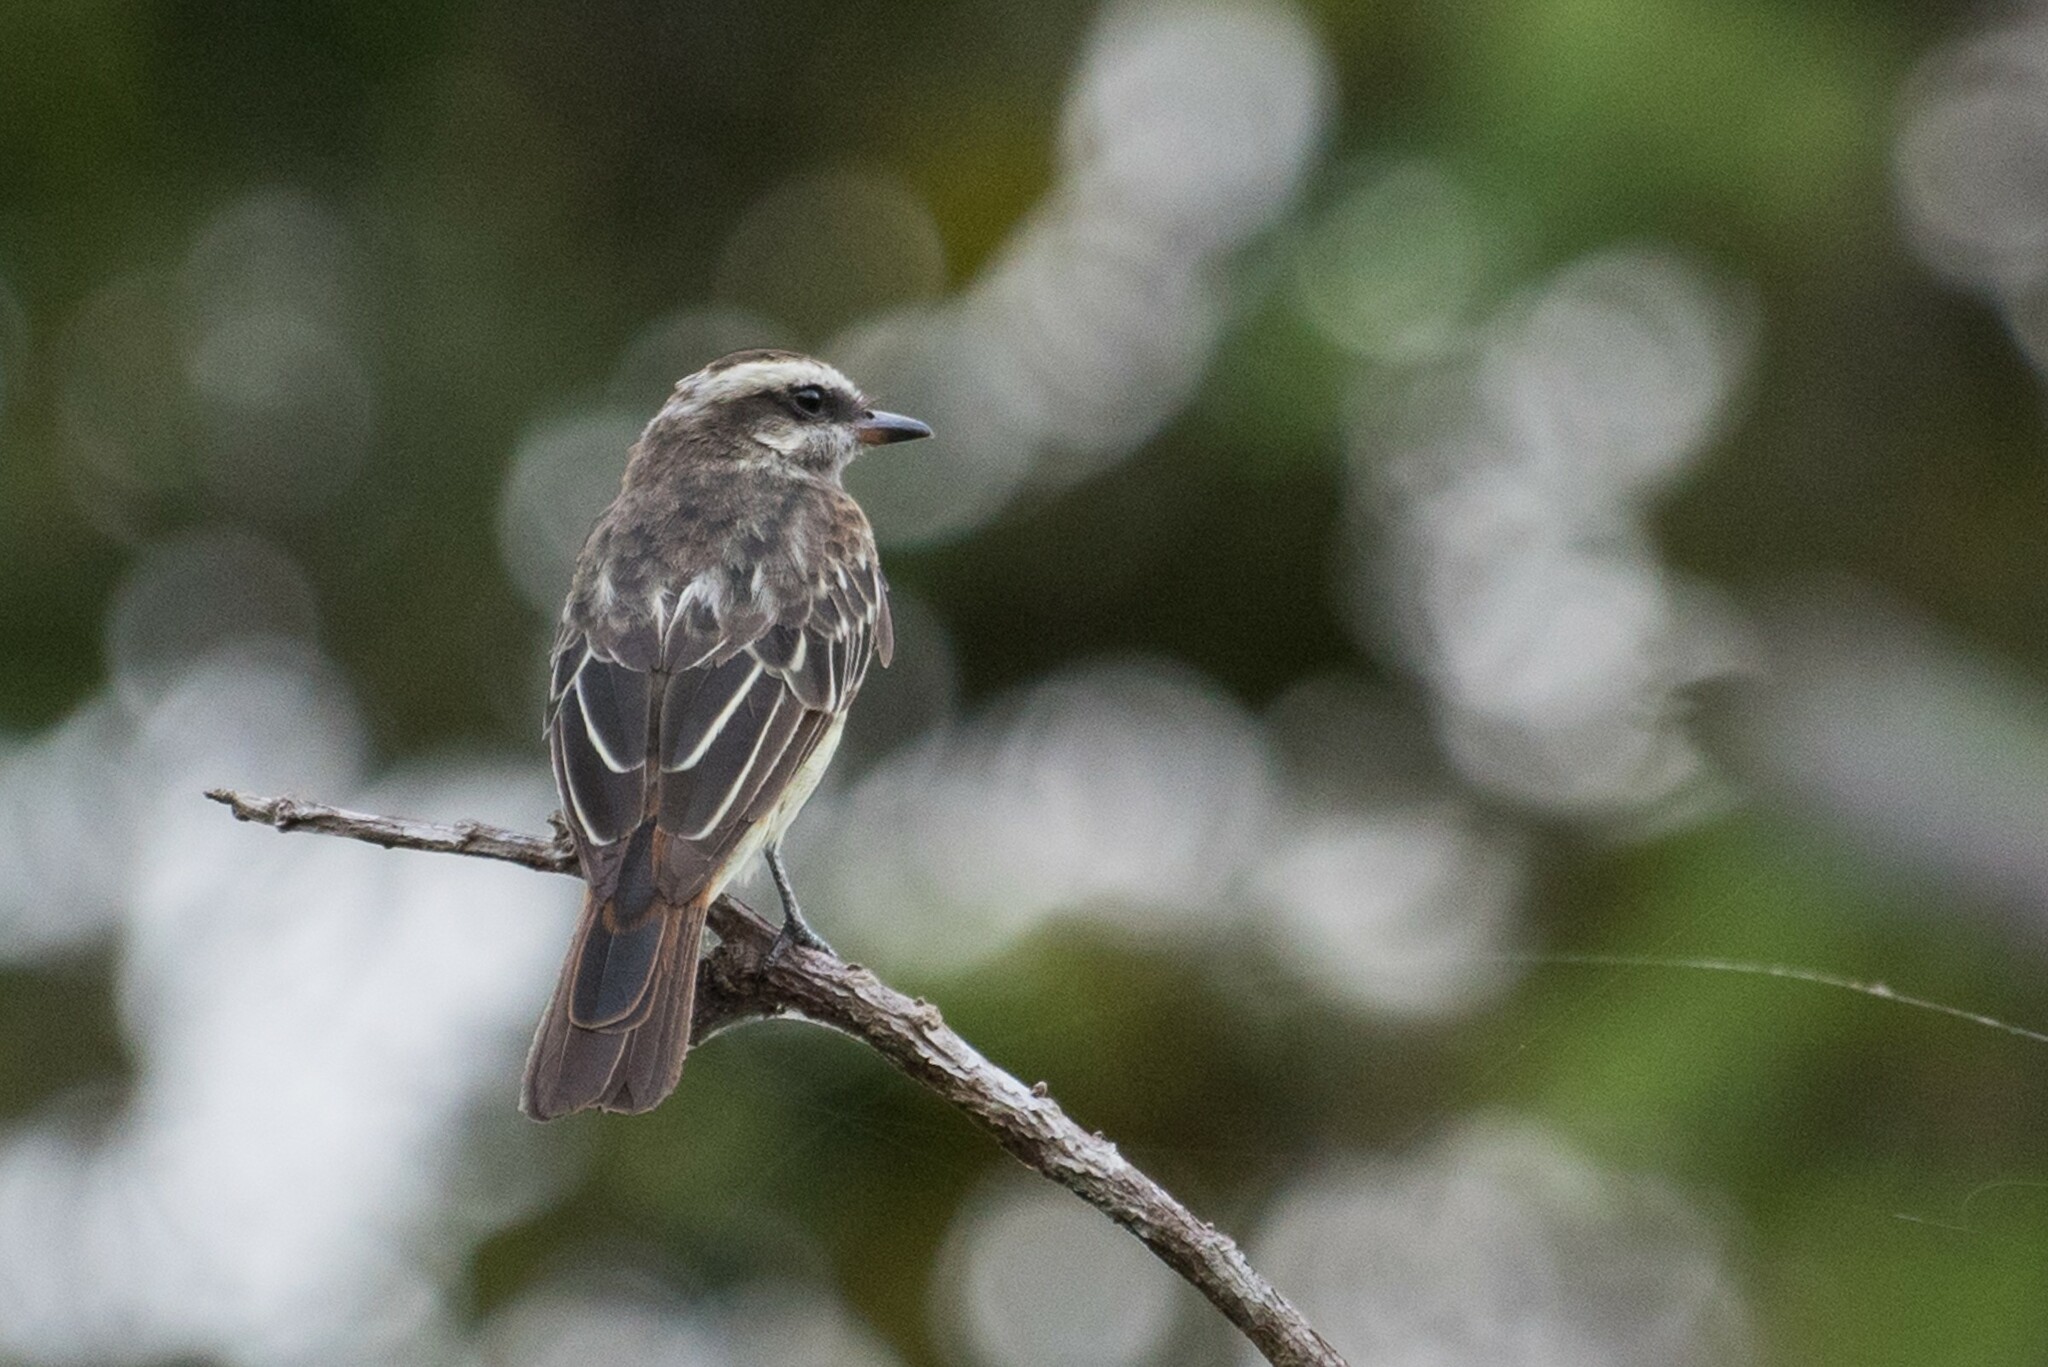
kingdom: Animalia
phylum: Chordata
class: Aves
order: Passeriformes
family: Tyrannidae
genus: Empidonomus
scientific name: Empidonomus varius
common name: Variegated flycatcher
